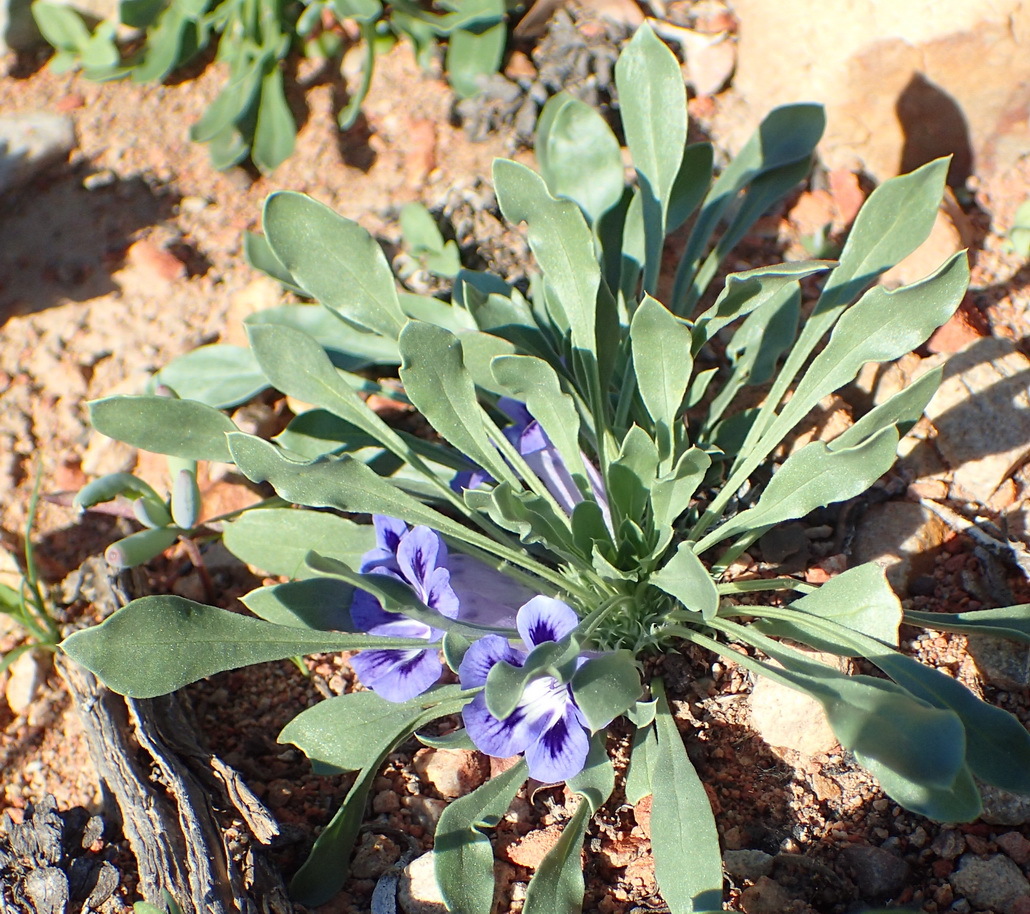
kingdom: Plantae
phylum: Tracheophyta
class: Magnoliopsida
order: Lamiales
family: Scrophulariaceae
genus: Aptosimum
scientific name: Aptosimum indivisum
